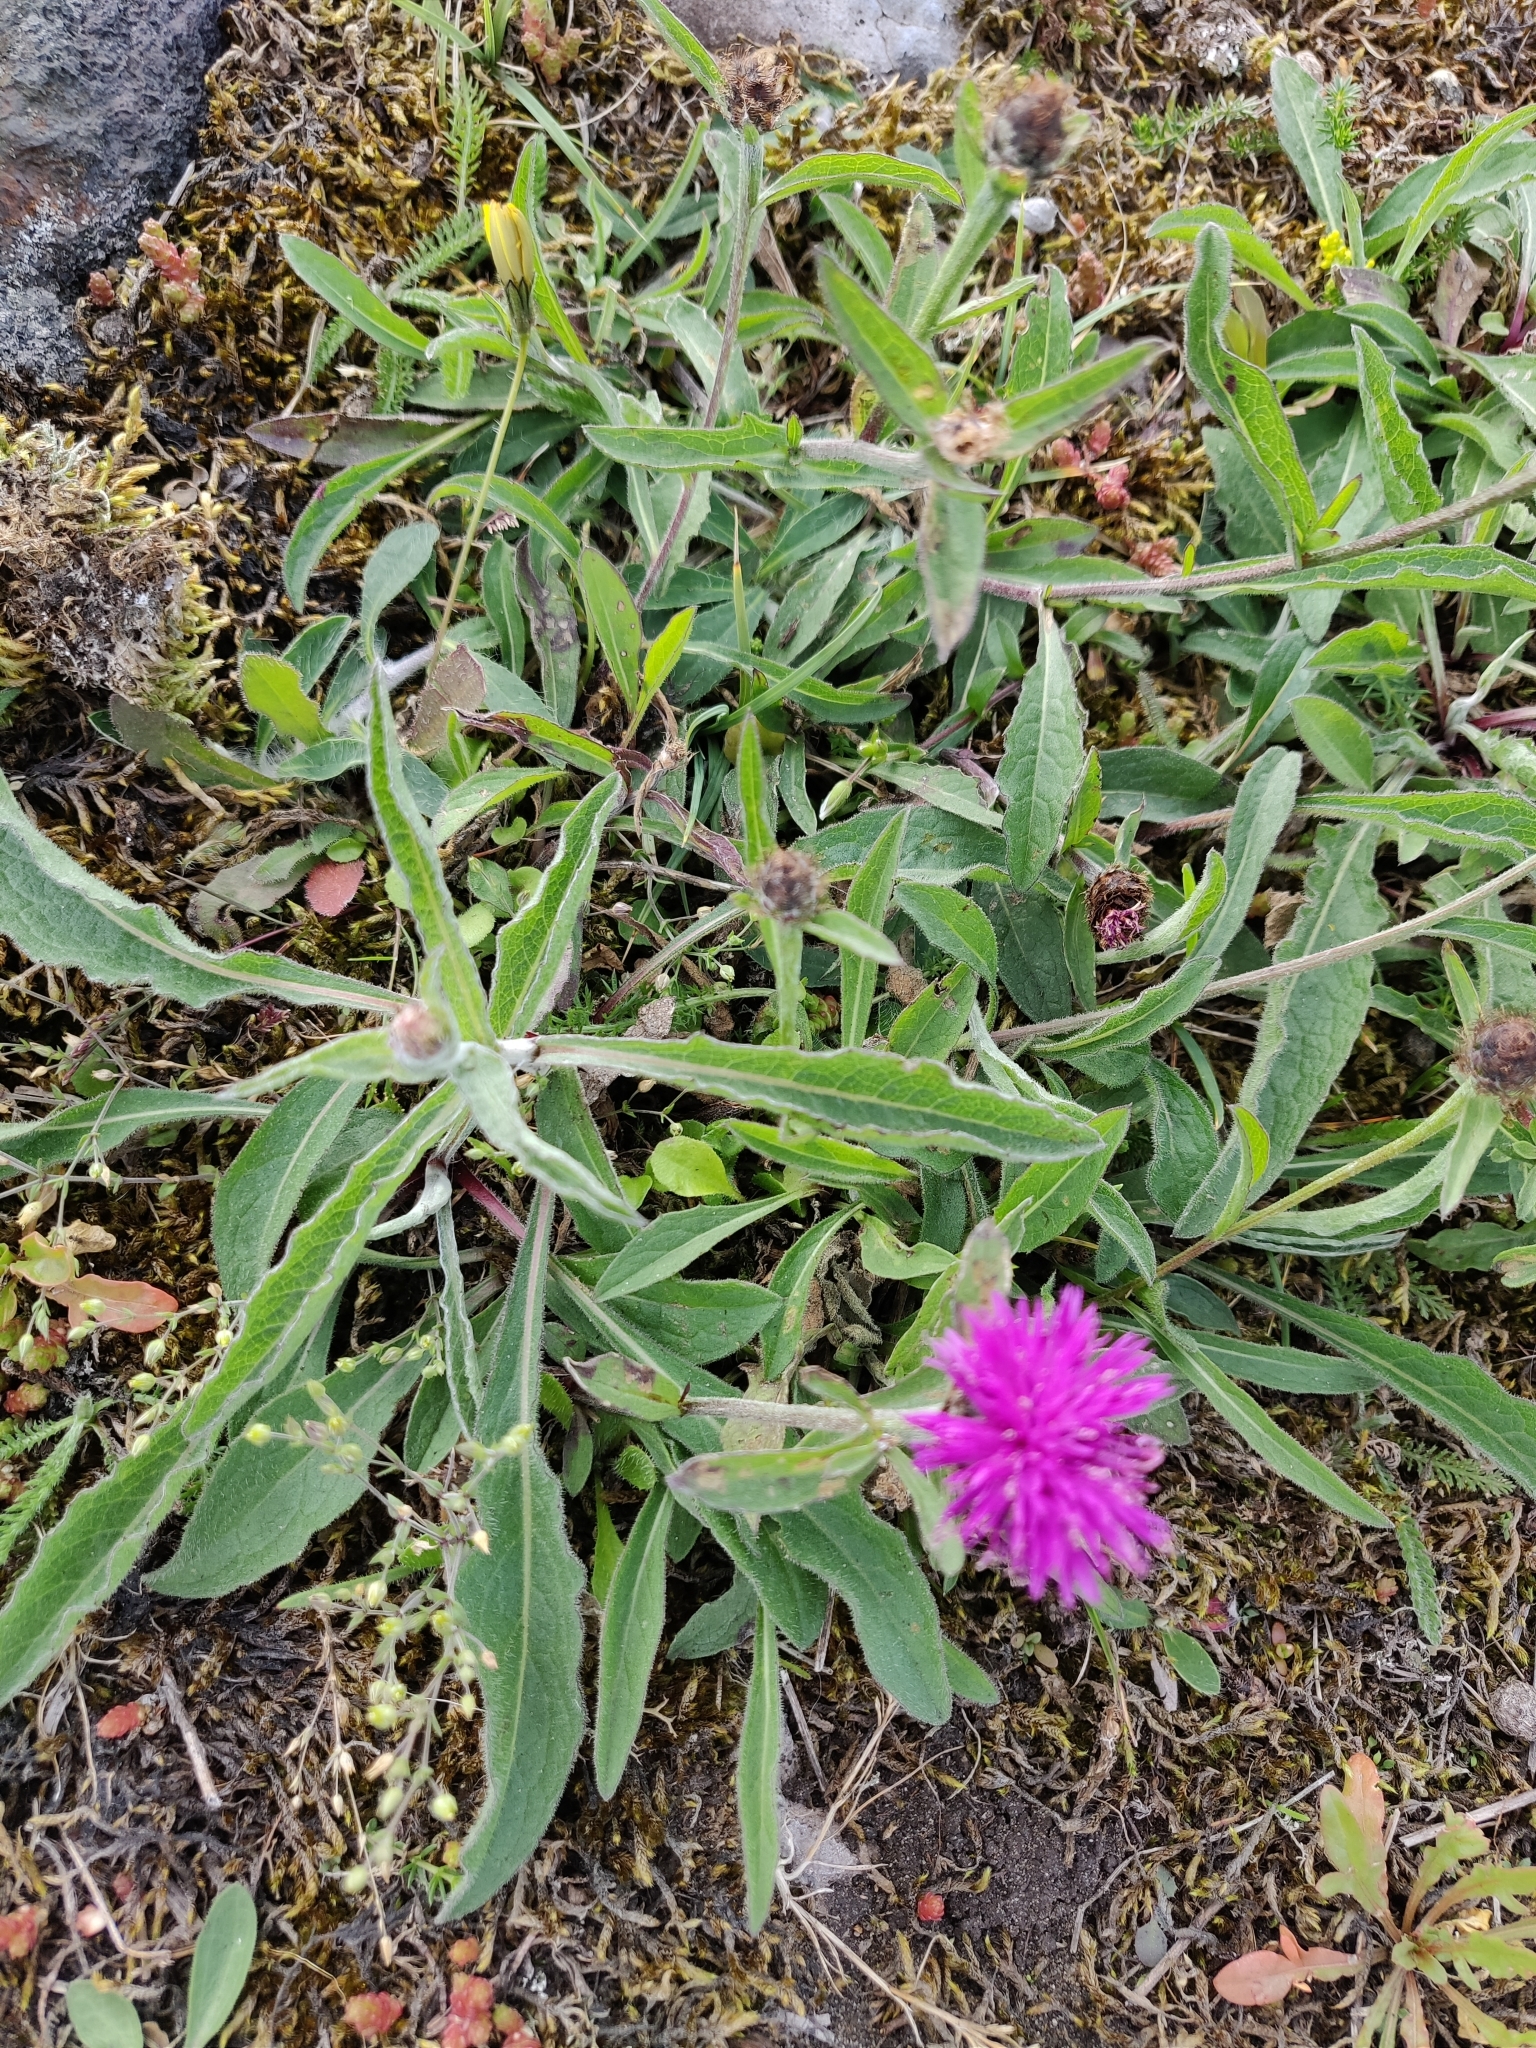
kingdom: Plantae
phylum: Tracheophyta
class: Magnoliopsida
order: Asterales
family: Asteraceae
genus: Centaurea
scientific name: Centaurea nigra
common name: Lesser knapweed
